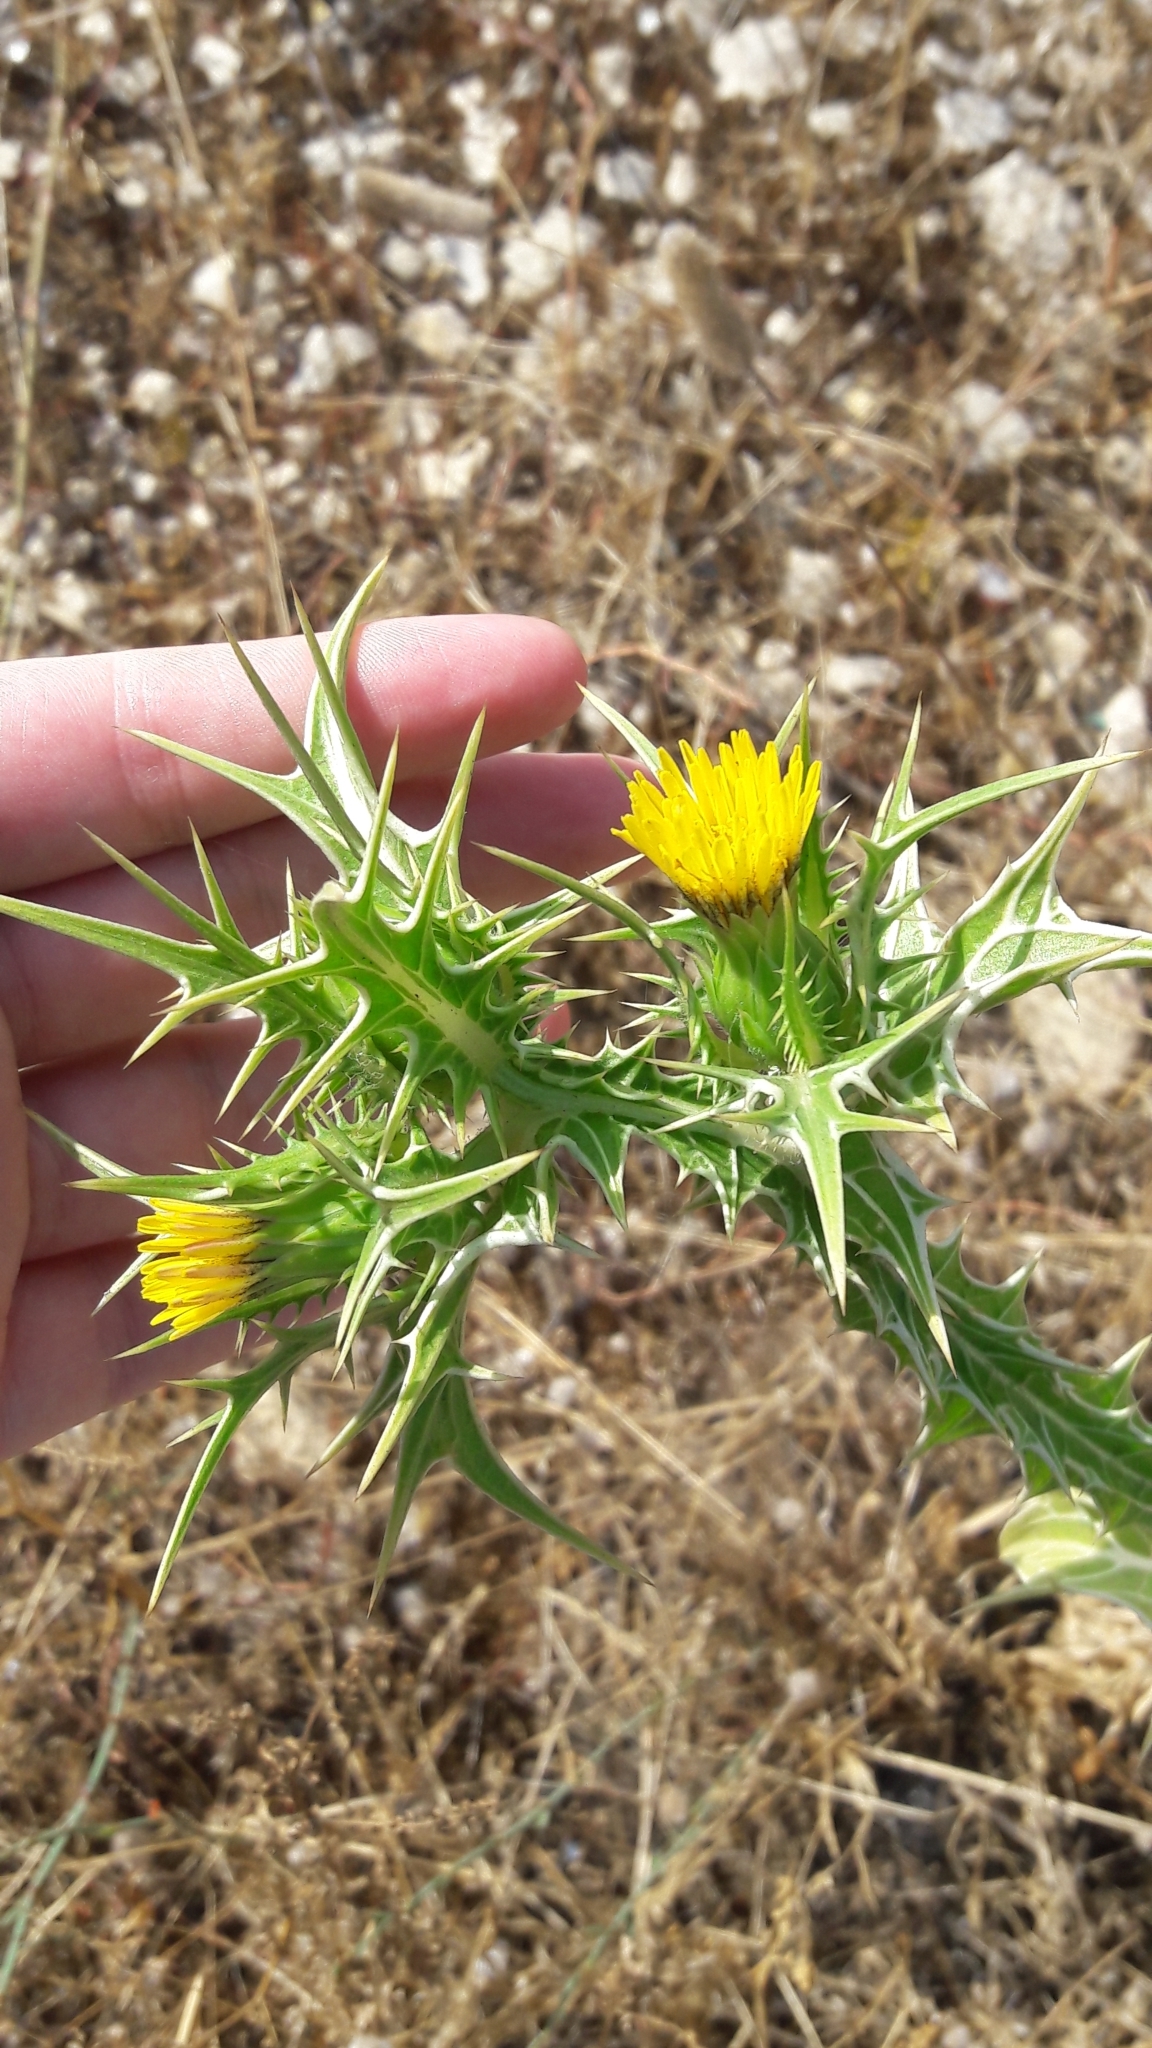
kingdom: Plantae
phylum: Tracheophyta
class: Magnoliopsida
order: Asterales
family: Asteraceae
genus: Scolymus
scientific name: Scolymus maculatus
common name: Spotted thistle
